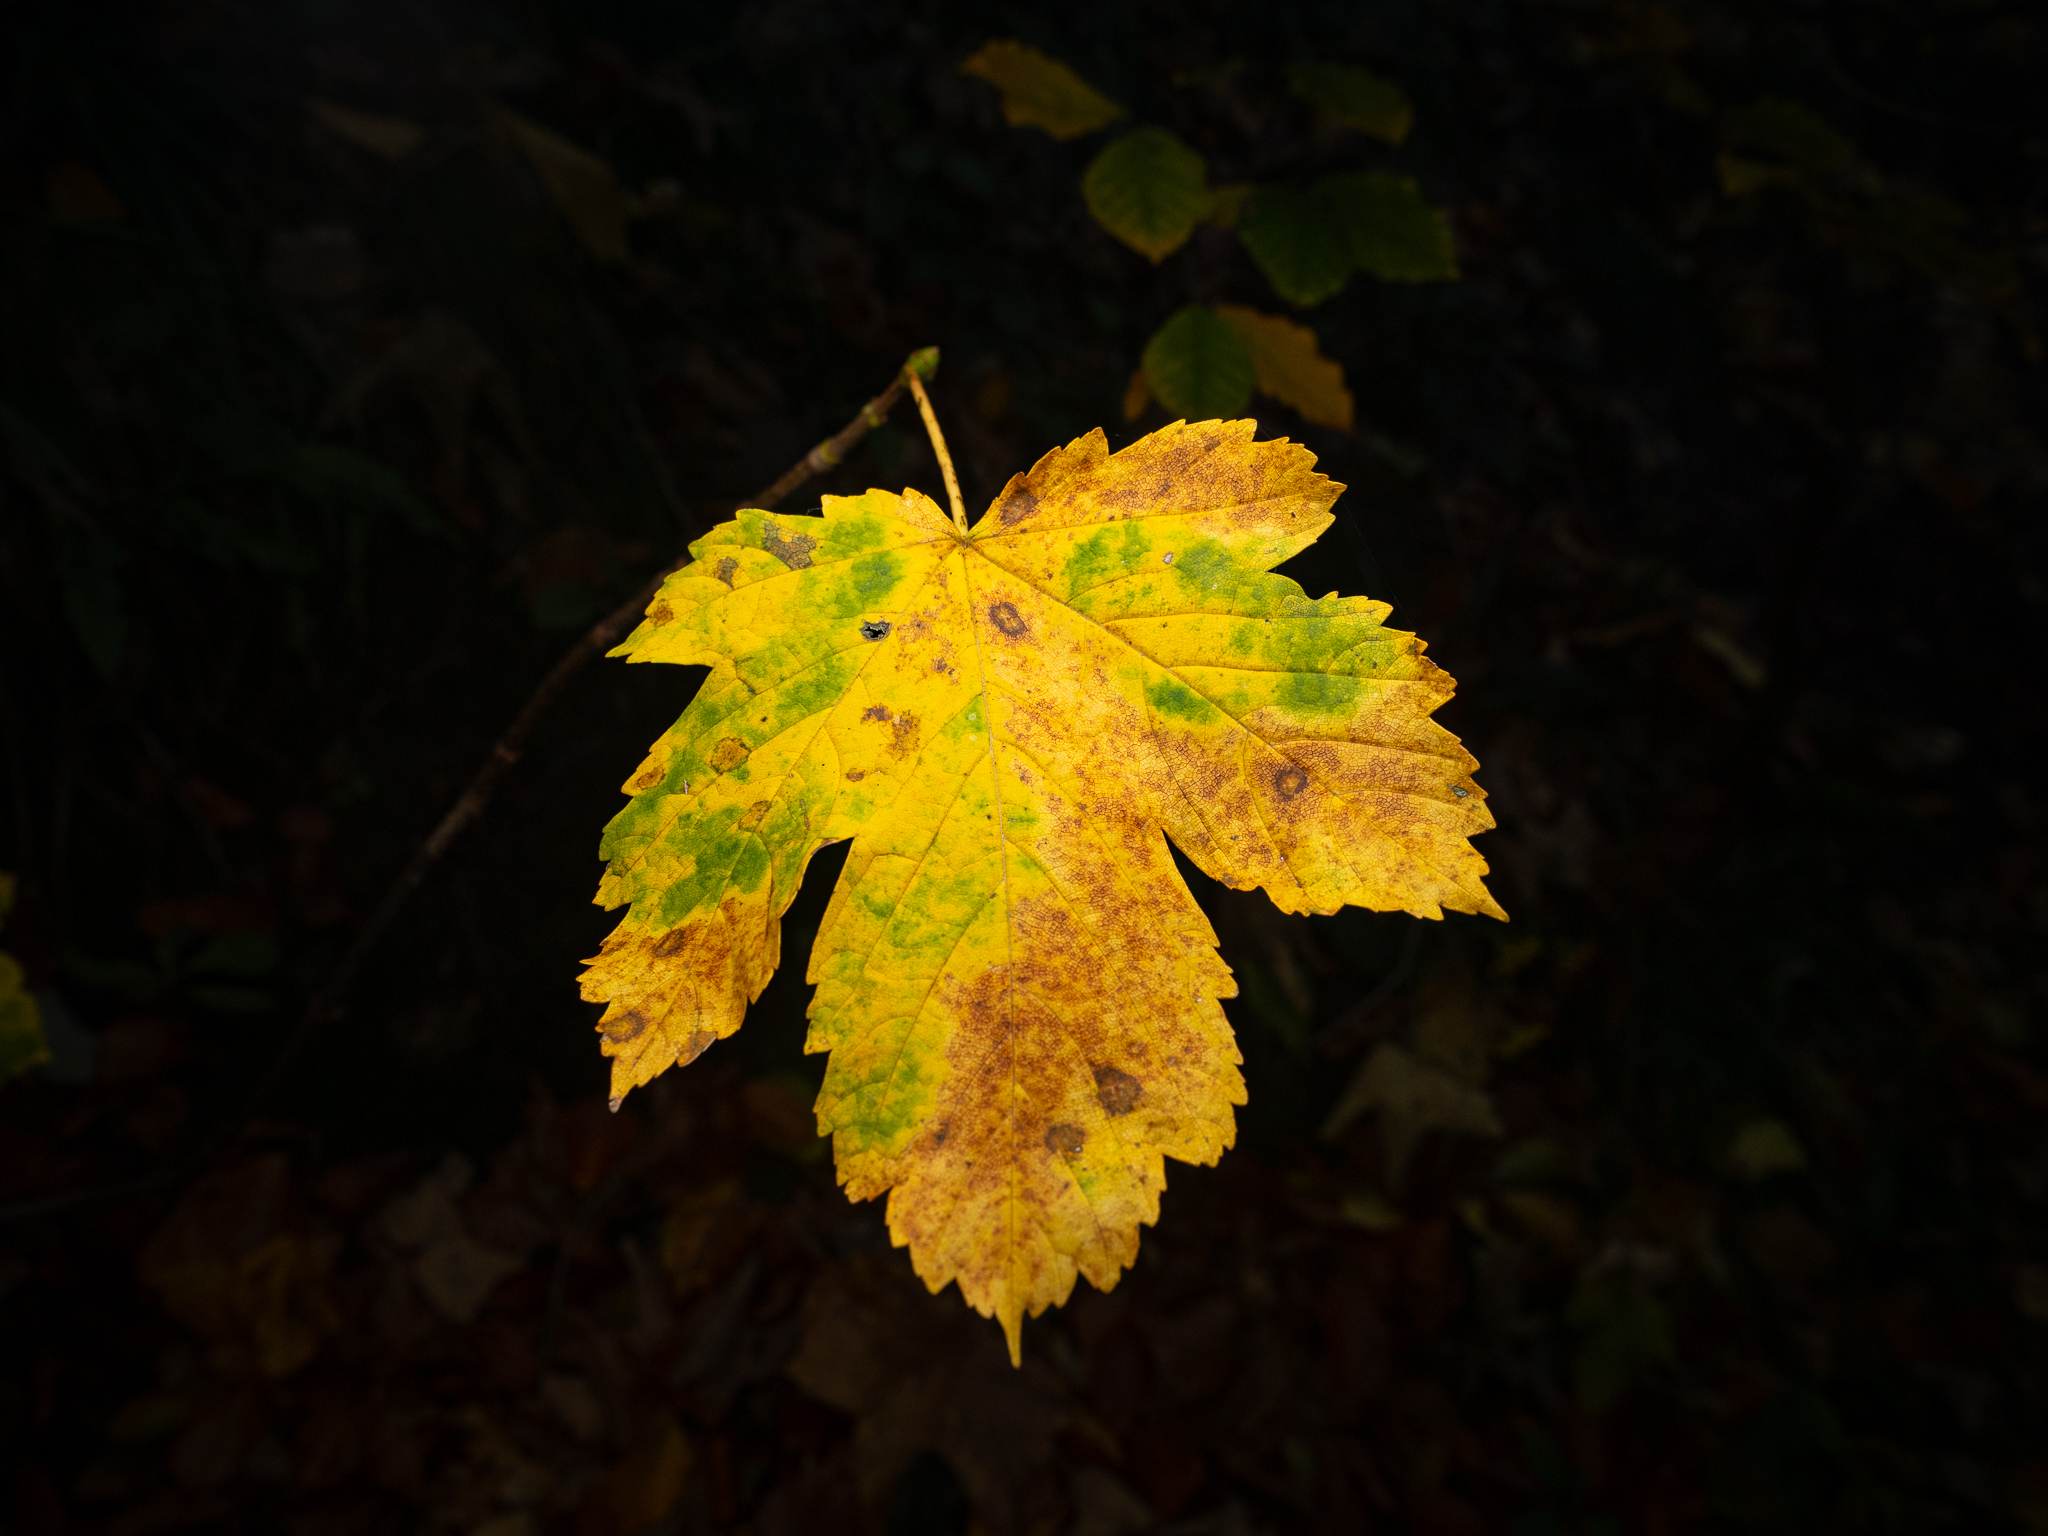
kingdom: Plantae
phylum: Tracheophyta
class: Magnoliopsida
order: Sapindales
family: Sapindaceae
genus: Acer
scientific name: Acer pseudoplatanus
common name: Sycamore
